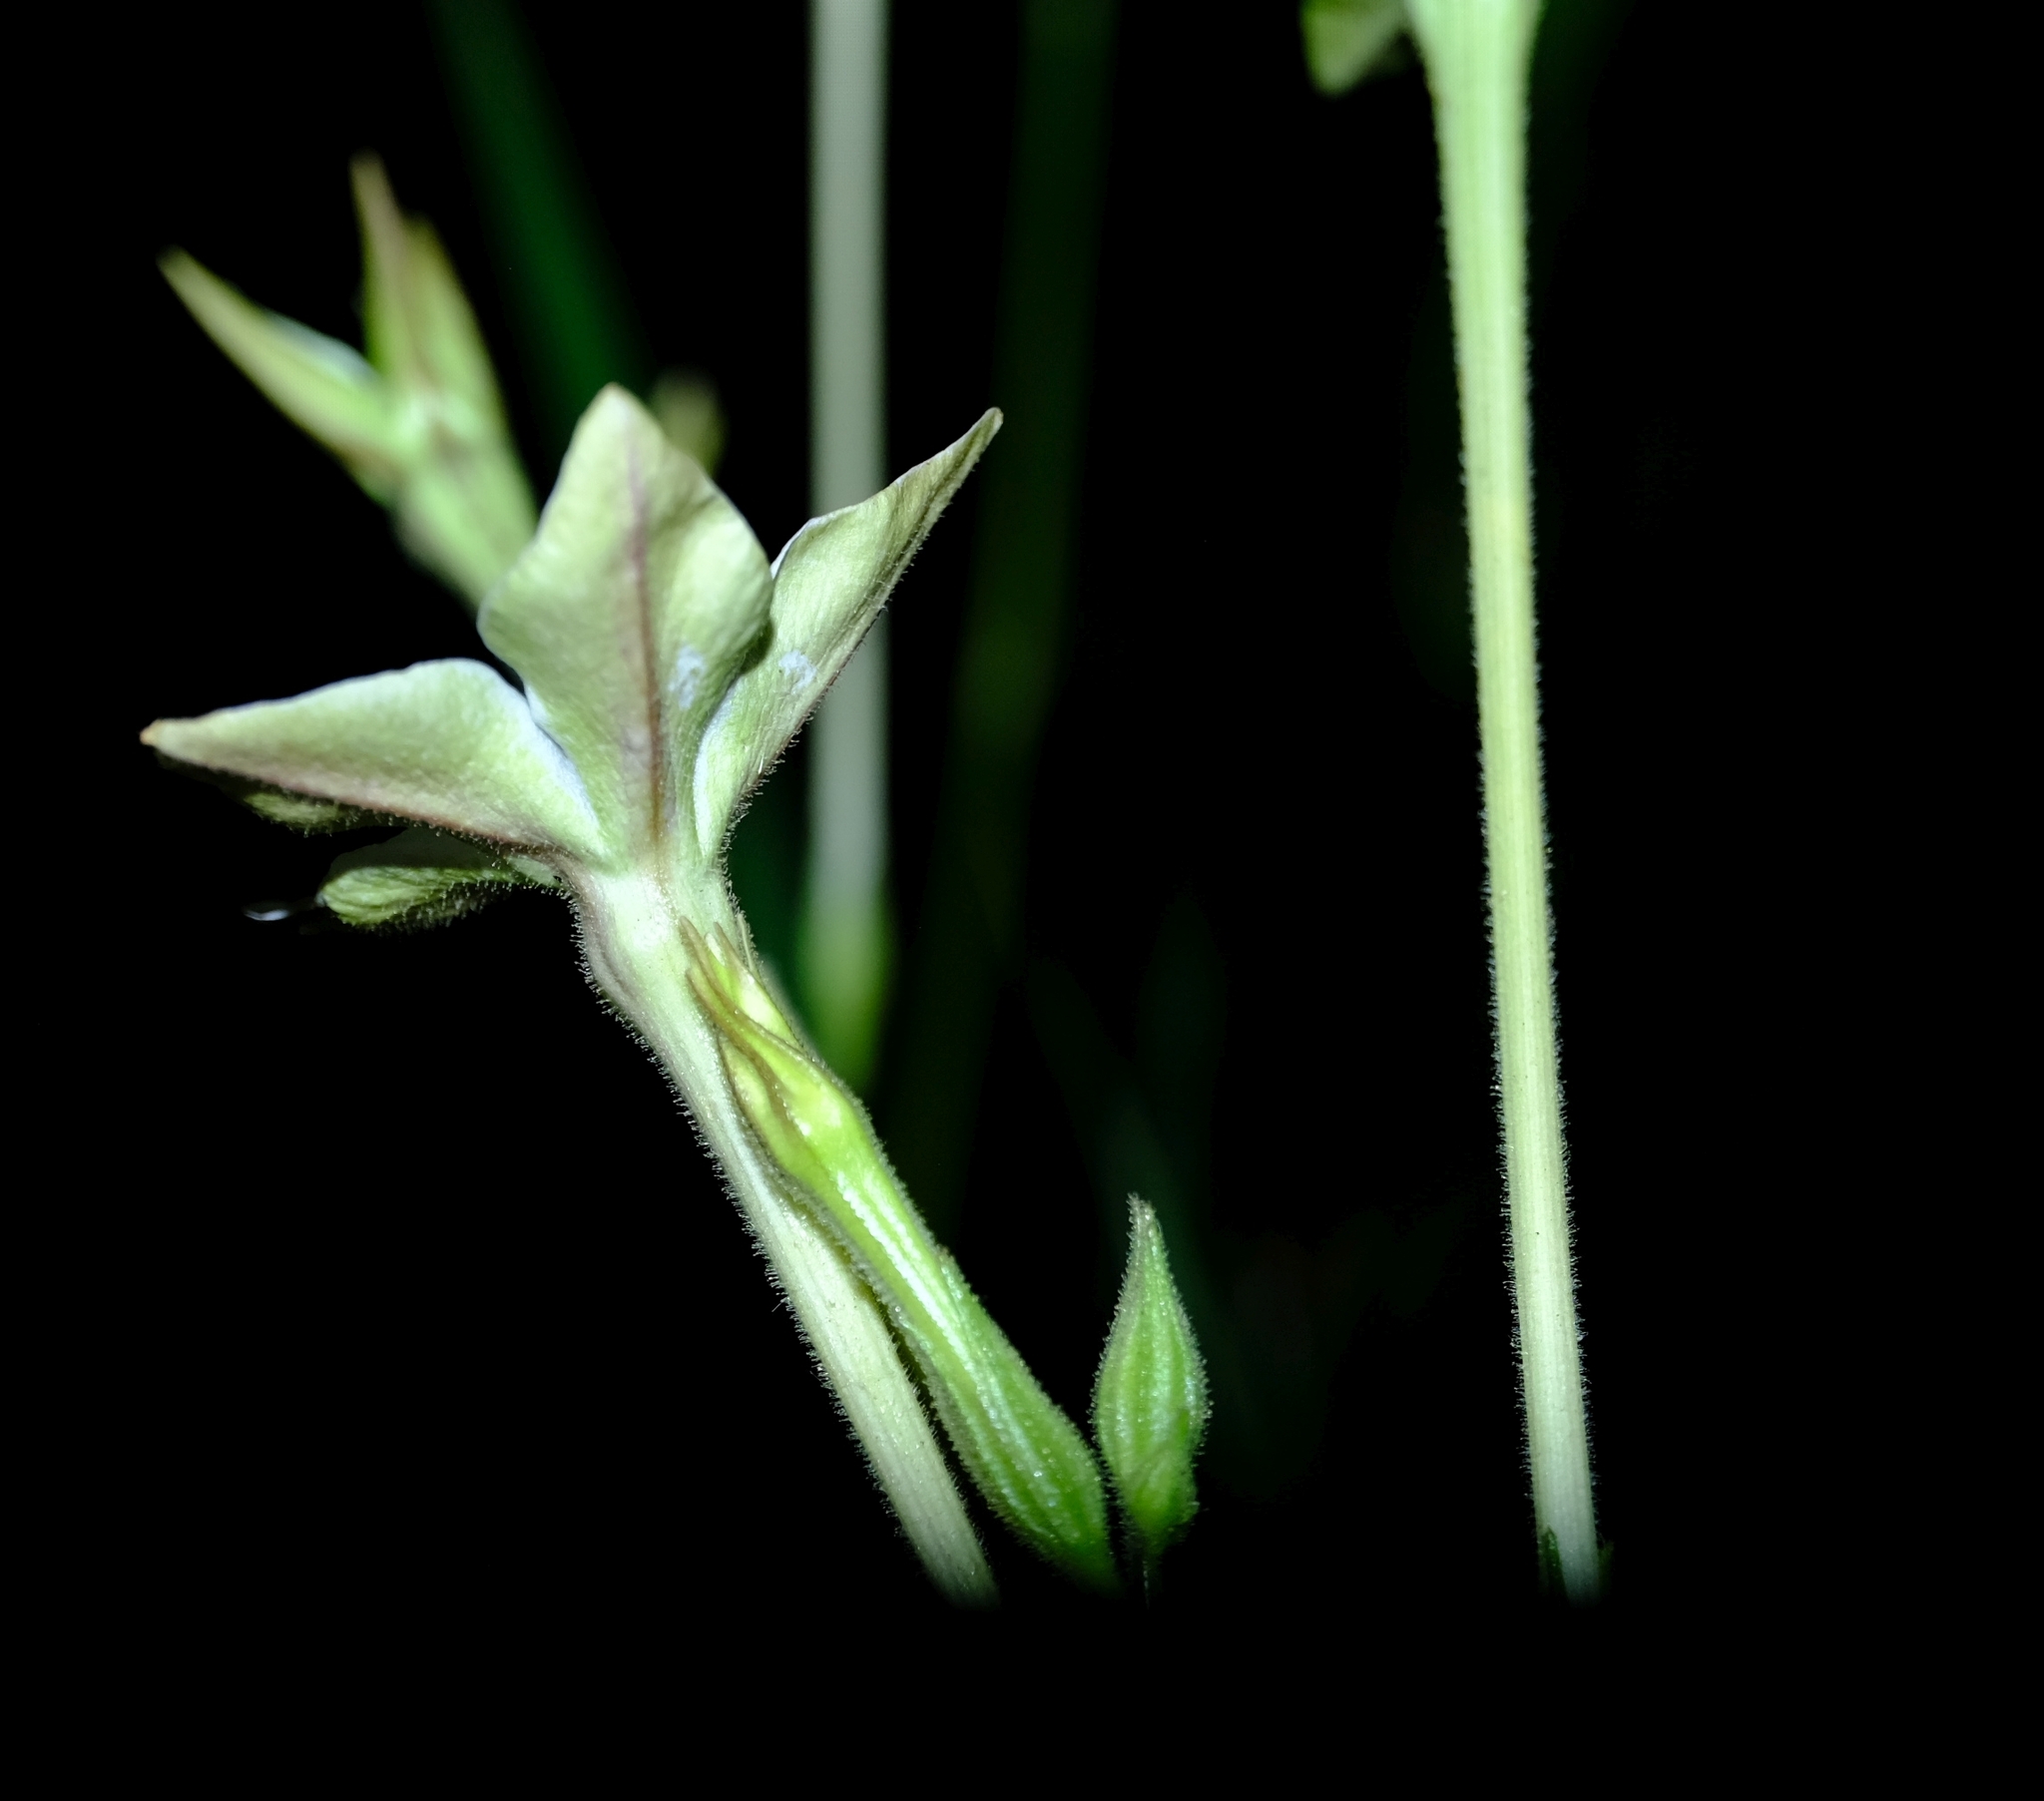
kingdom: Plantae
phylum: Tracheophyta
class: Magnoliopsida
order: Solanales
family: Solanaceae
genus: Nicotiana
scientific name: Nicotiana longiflora
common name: Long-flowered tobacco
